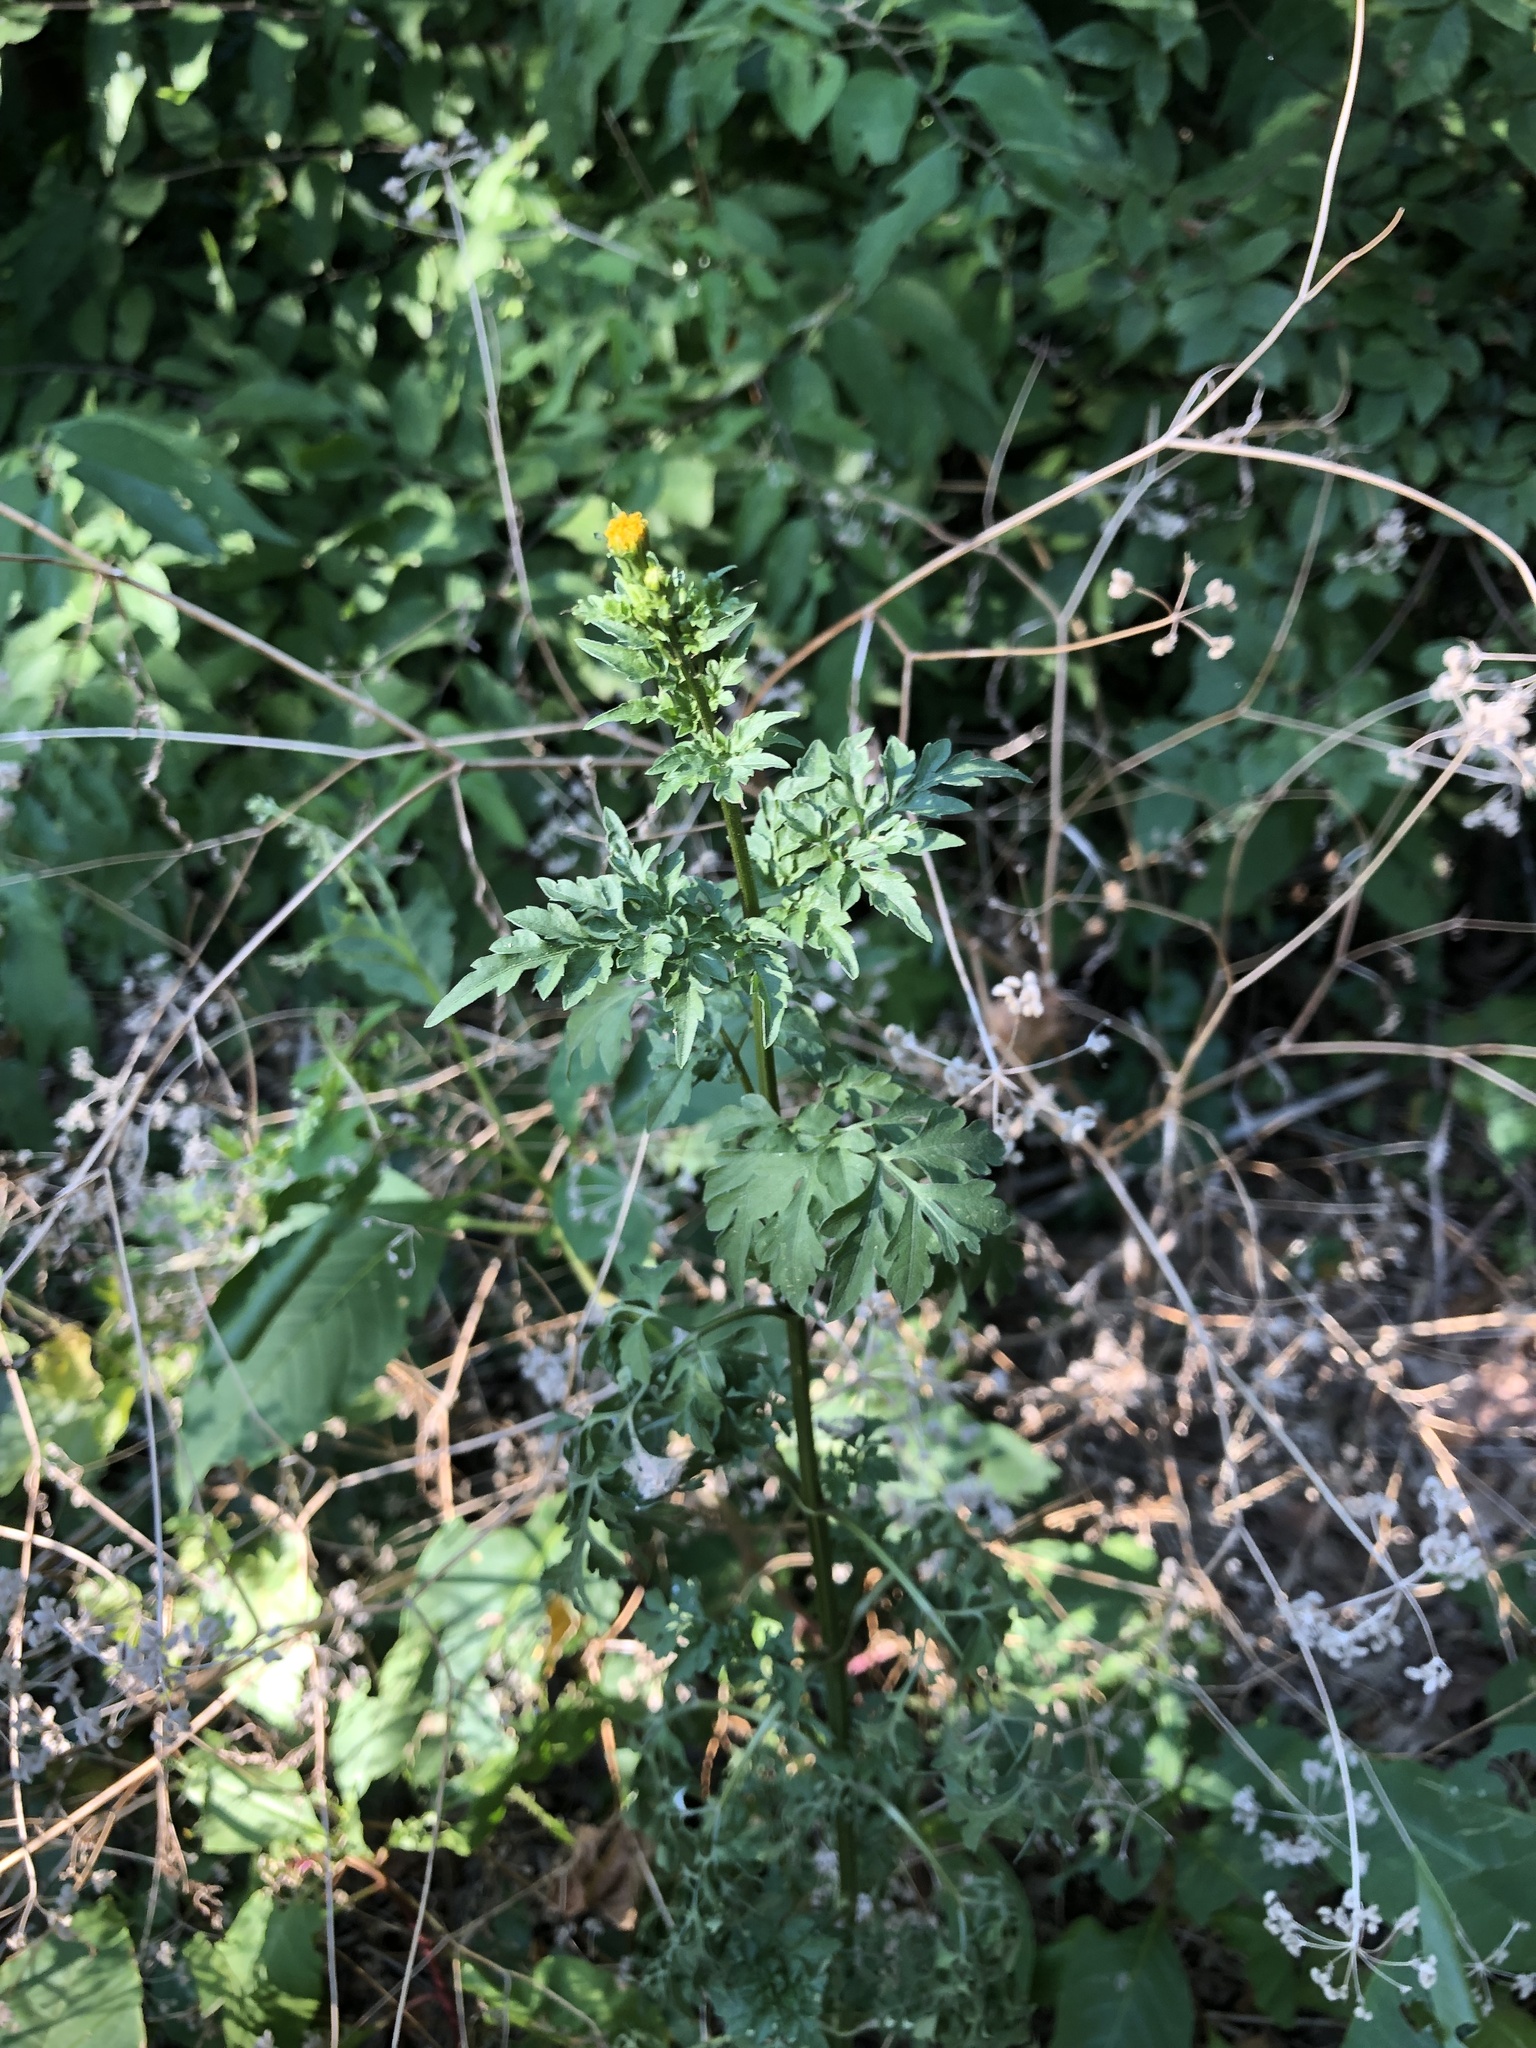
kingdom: Plantae
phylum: Tracheophyta
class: Magnoliopsida
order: Asterales
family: Asteraceae
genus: Bidens
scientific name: Bidens bipinnata
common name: Spanish-needles
